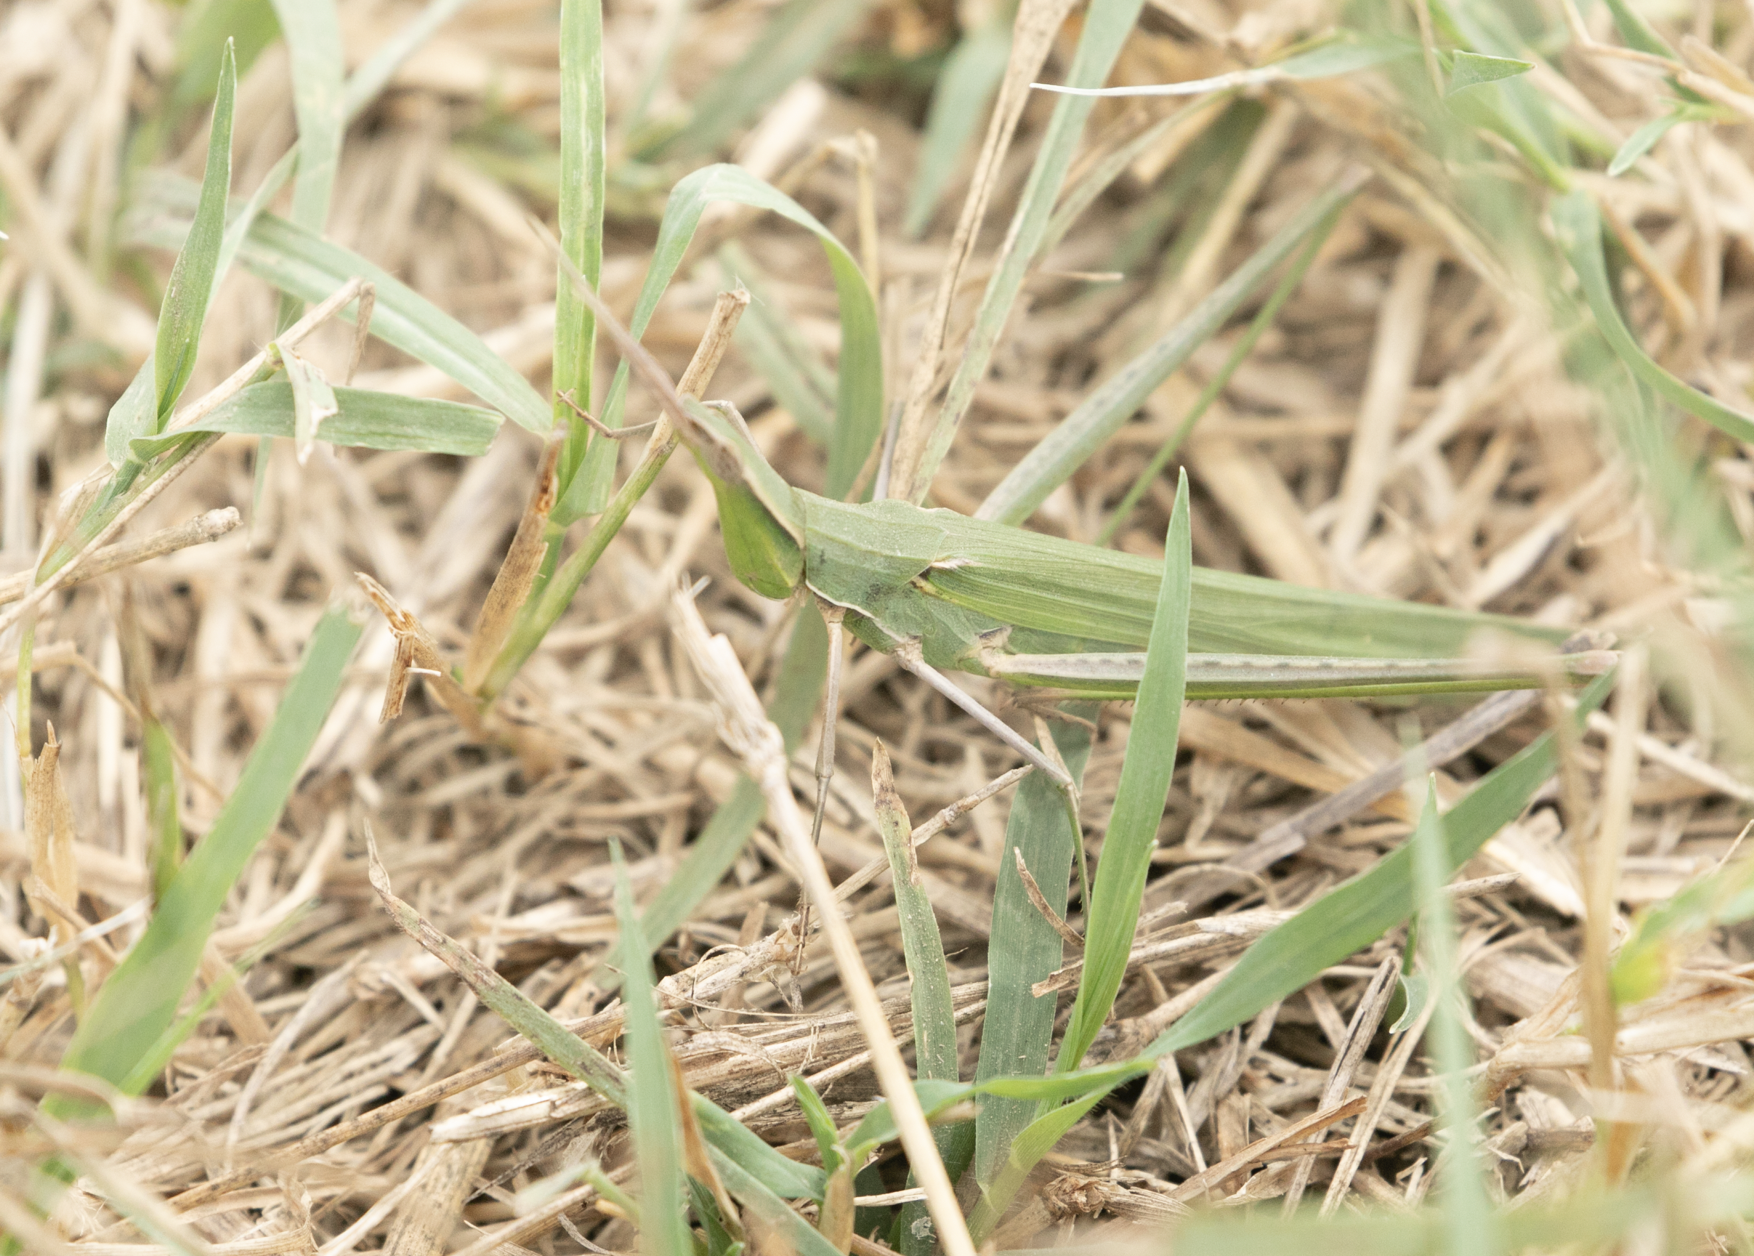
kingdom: Animalia
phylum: Arthropoda
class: Insecta
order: Orthoptera
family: Acrididae
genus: Acrida
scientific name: Acrida ungarica
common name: Common cone-headed grasshopper
